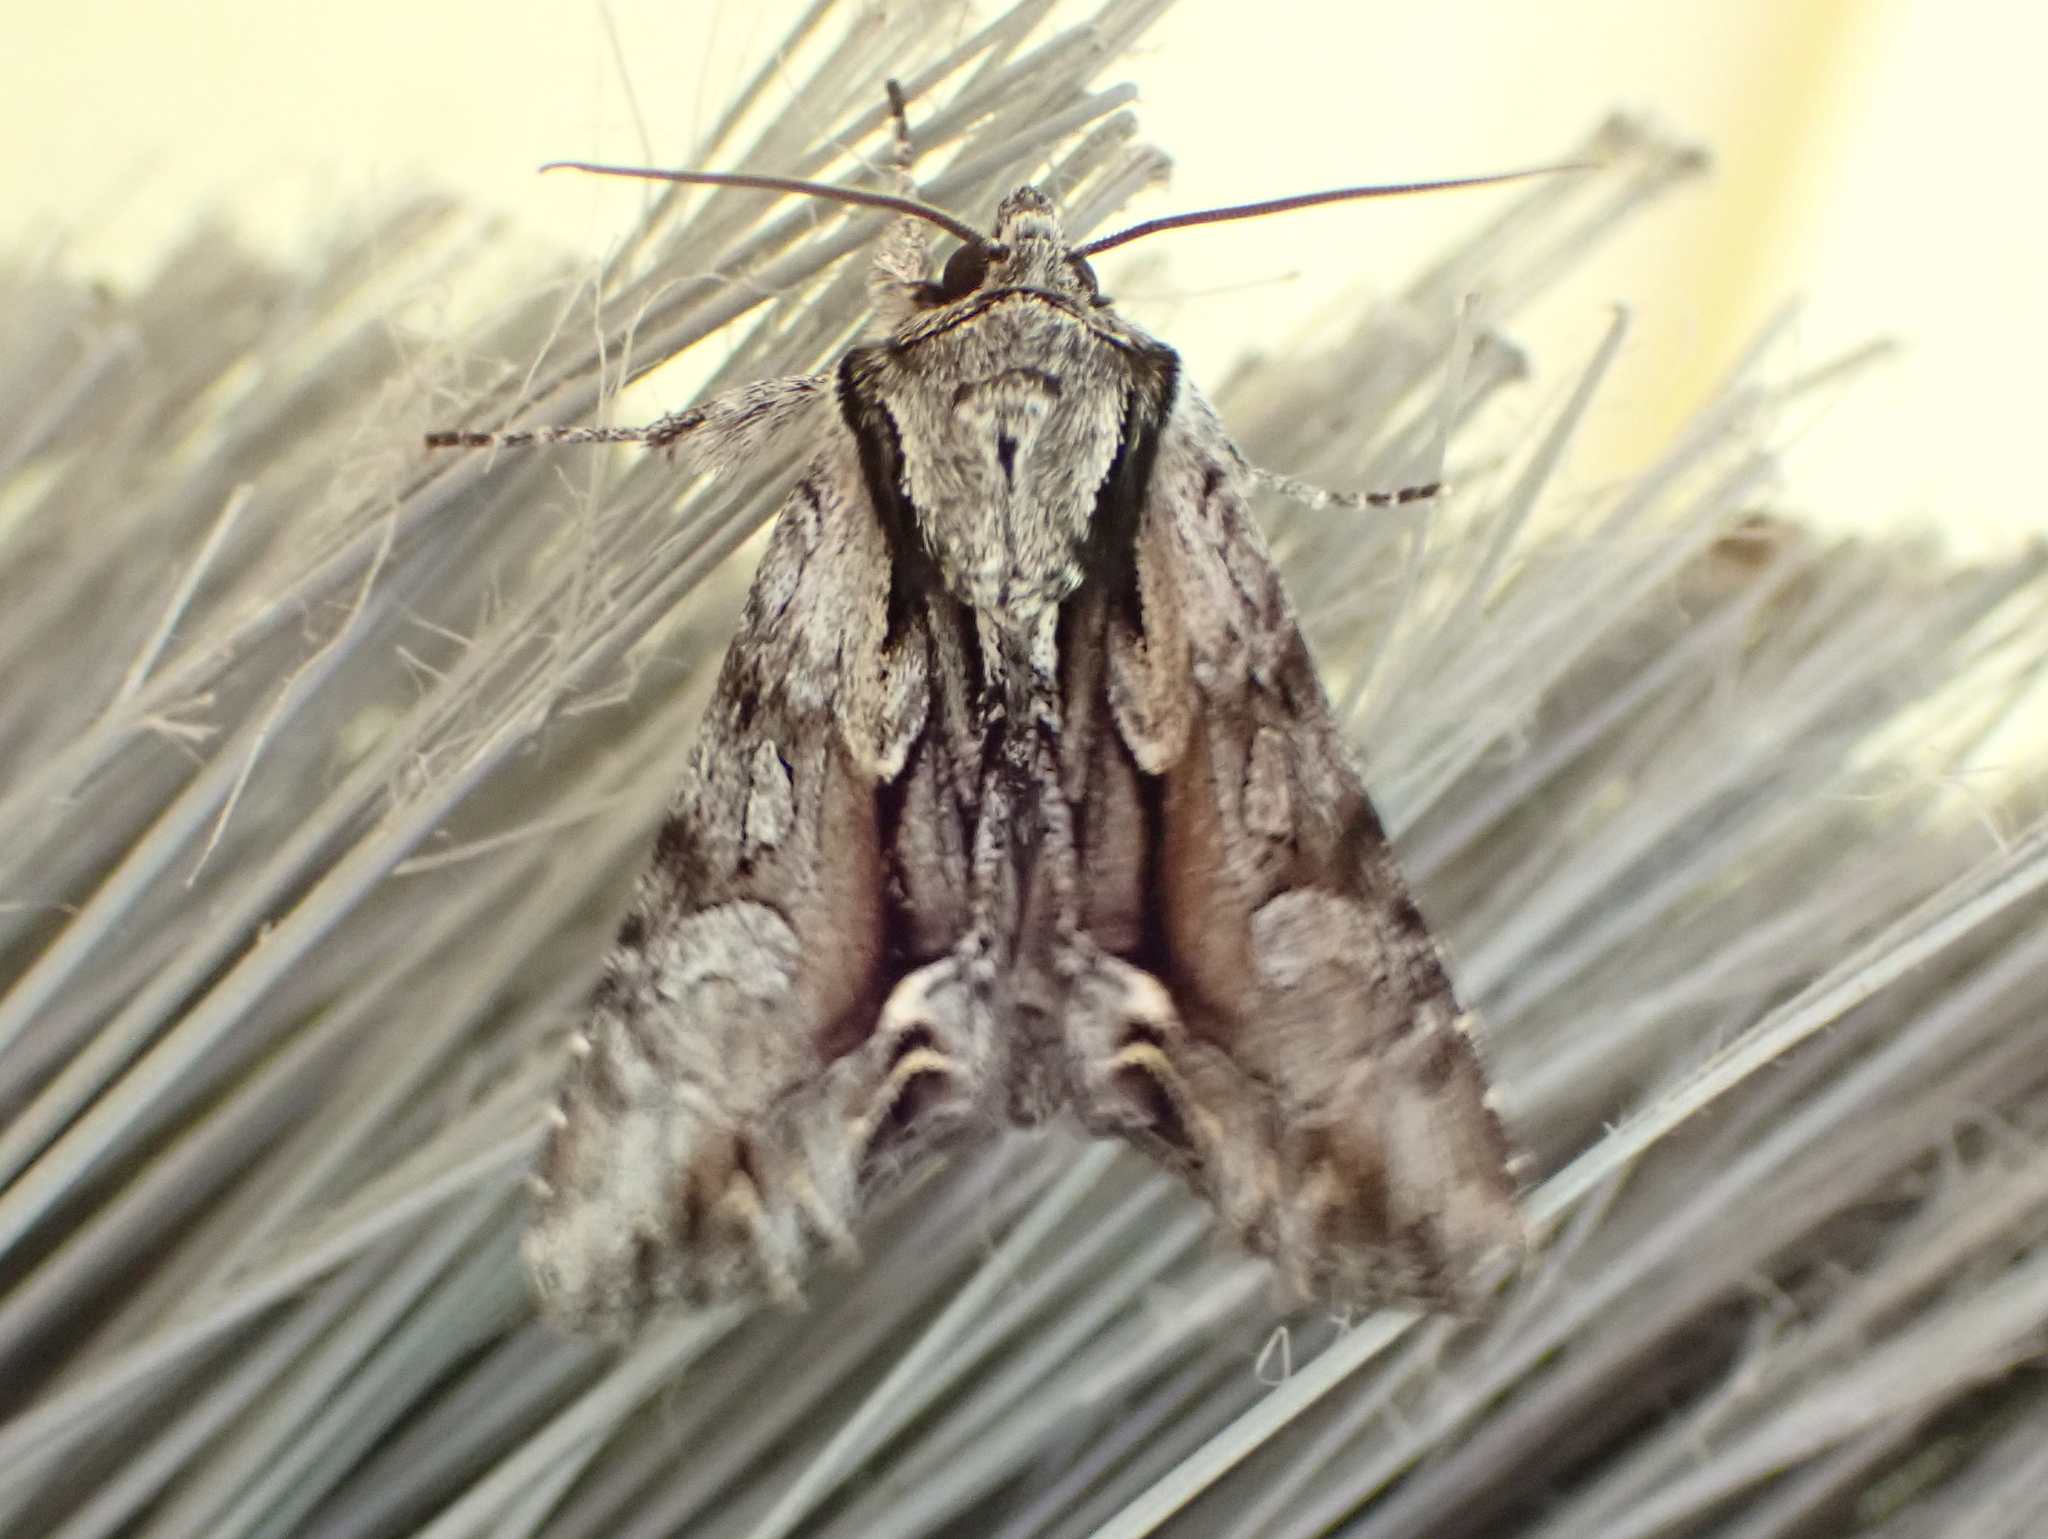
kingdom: Animalia
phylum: Arthropoda
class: Insecta
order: Lepidoptera
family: Noctuidae
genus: Hyppa
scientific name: Hyppa xylinoides
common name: Common hyppa moth
